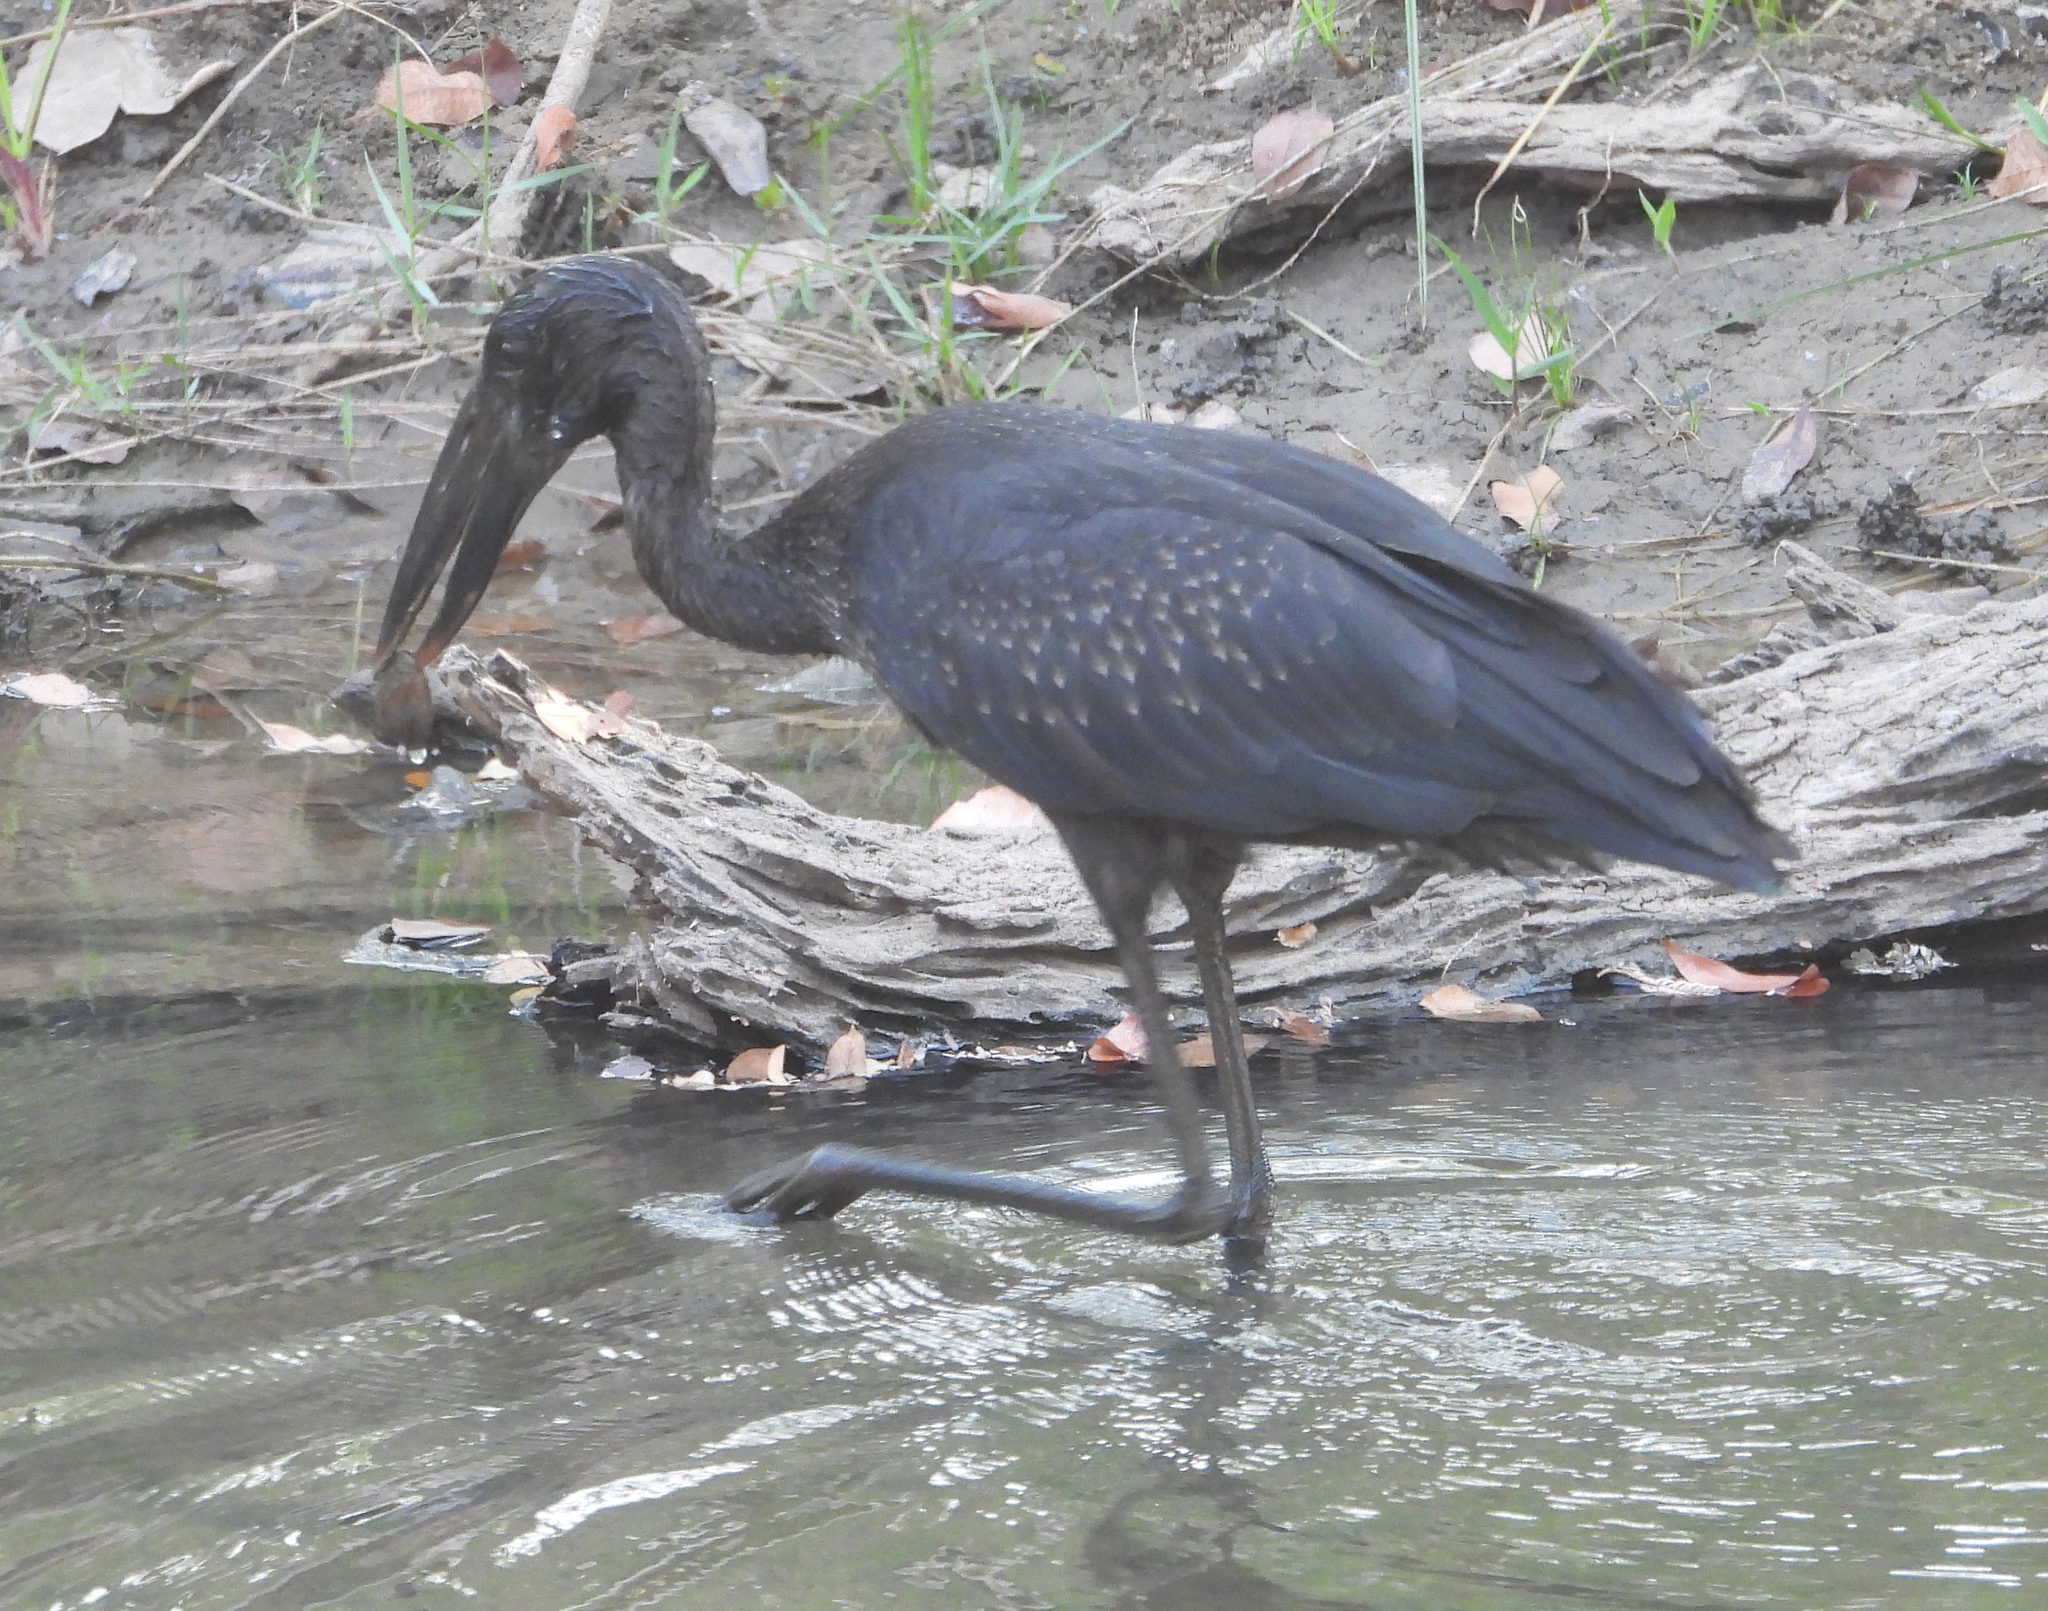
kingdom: Animalia
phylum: Chordata
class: Aves
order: Ciconiiformes
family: Ciconiidae
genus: Anastomus
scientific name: Anastomus lamelligerus
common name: African openbill
